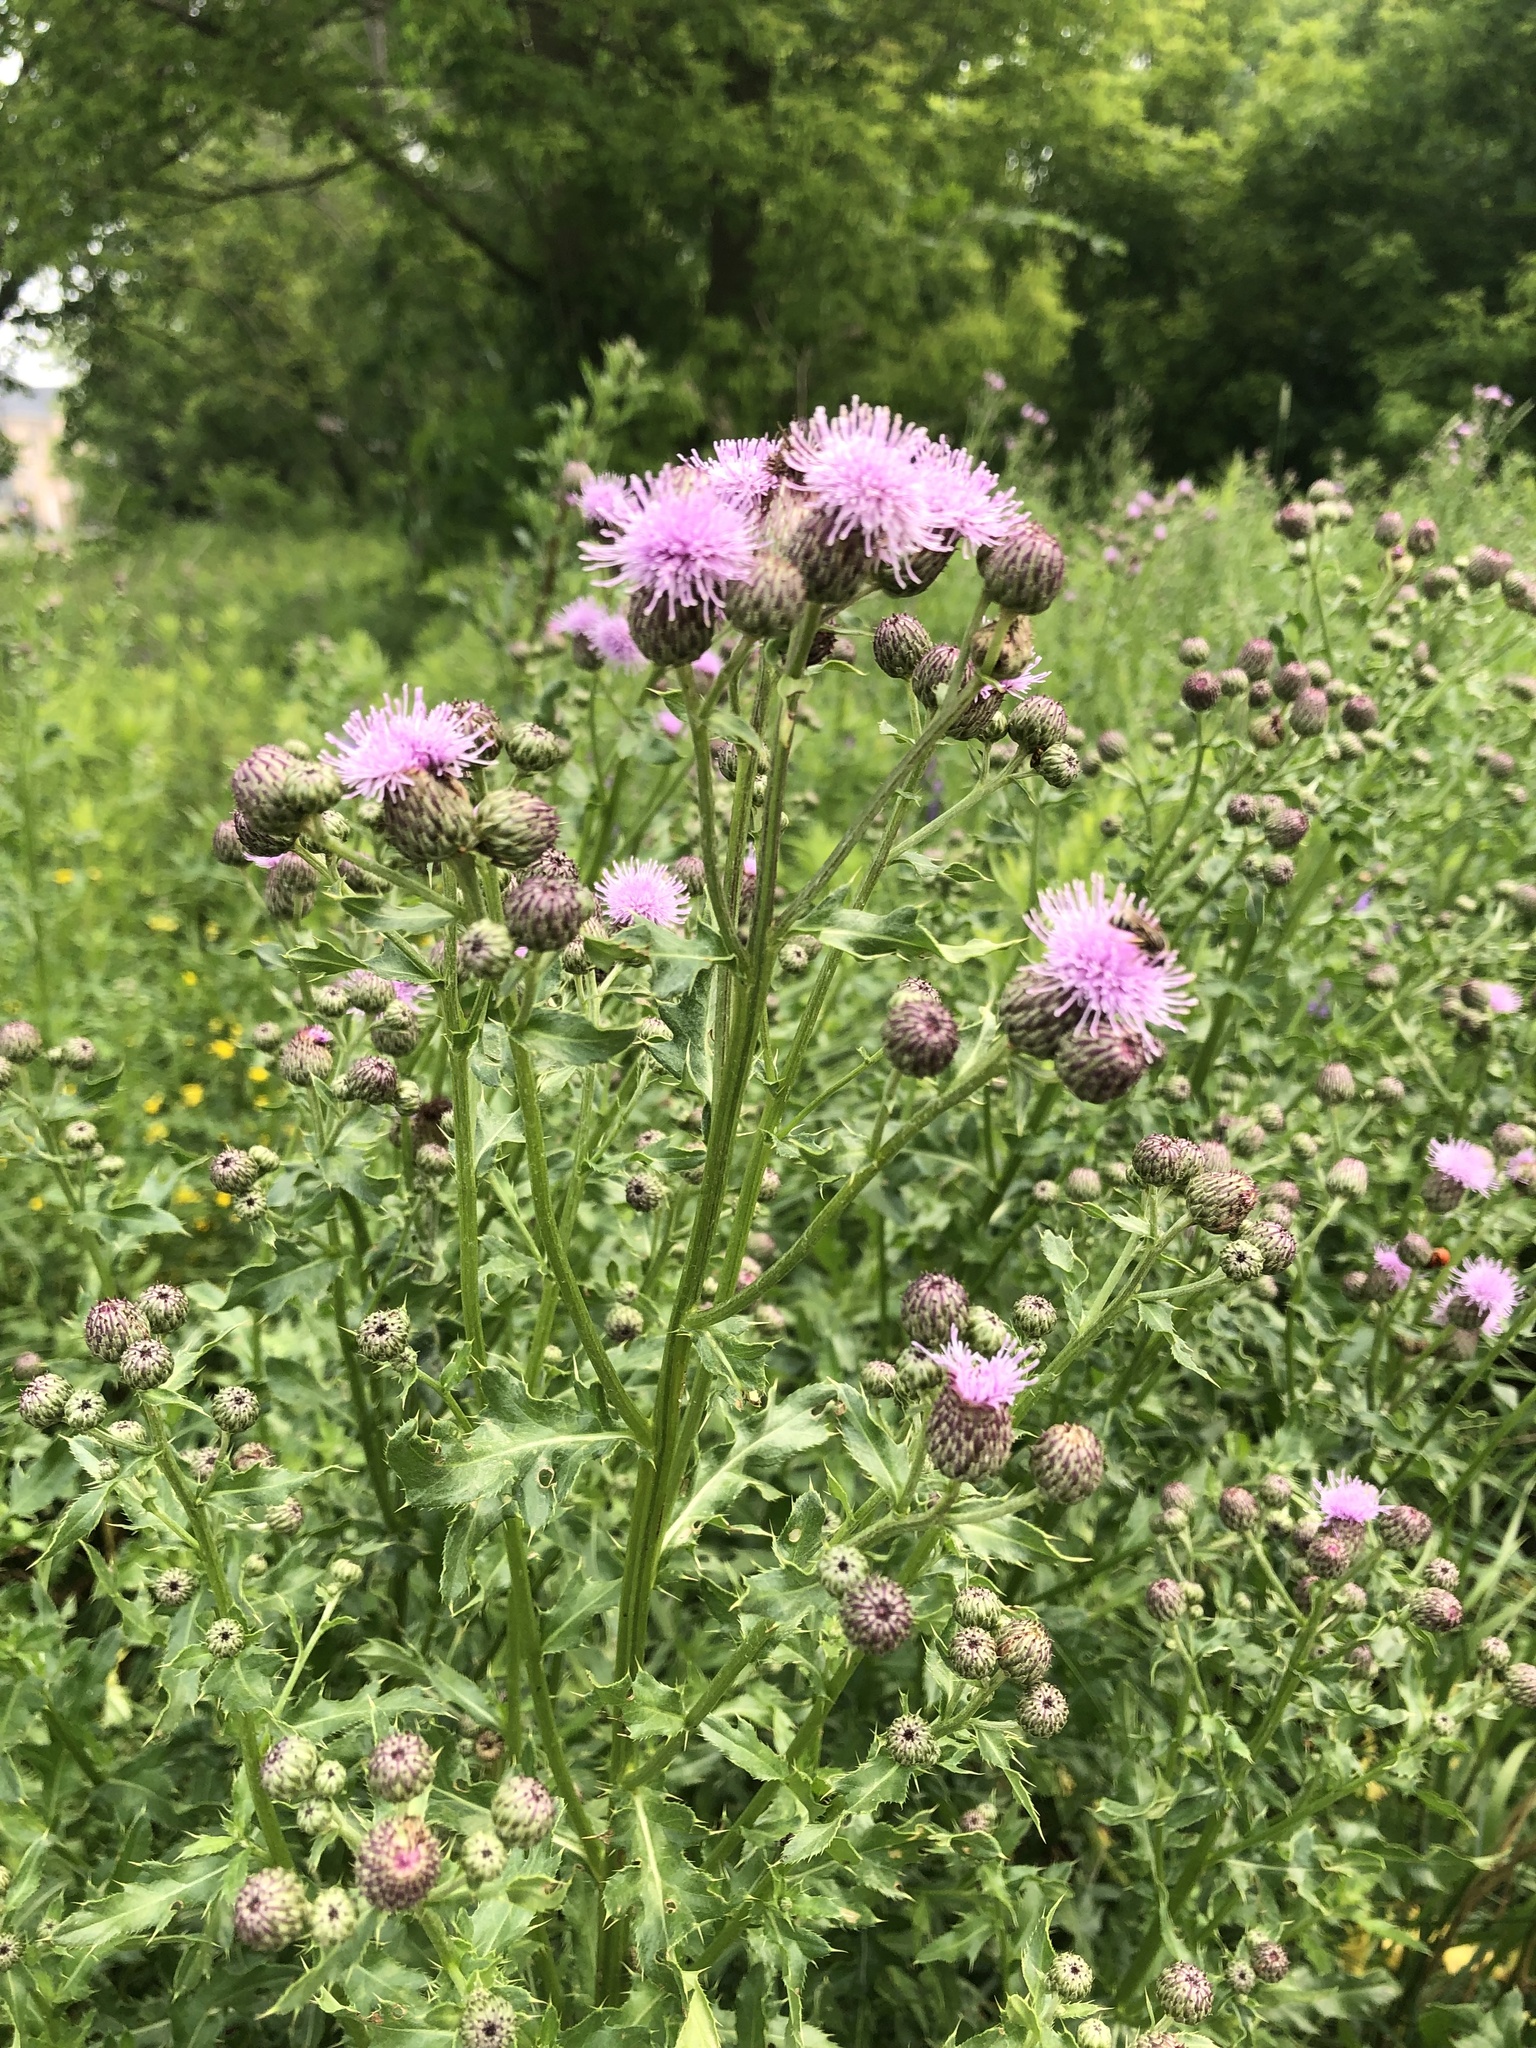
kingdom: Plantae
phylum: Tracheophyta
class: Magnoliopsida
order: Asterales
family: Asteraceae
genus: Cirsium
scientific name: Cirsium arvense
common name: Creeping thistle
